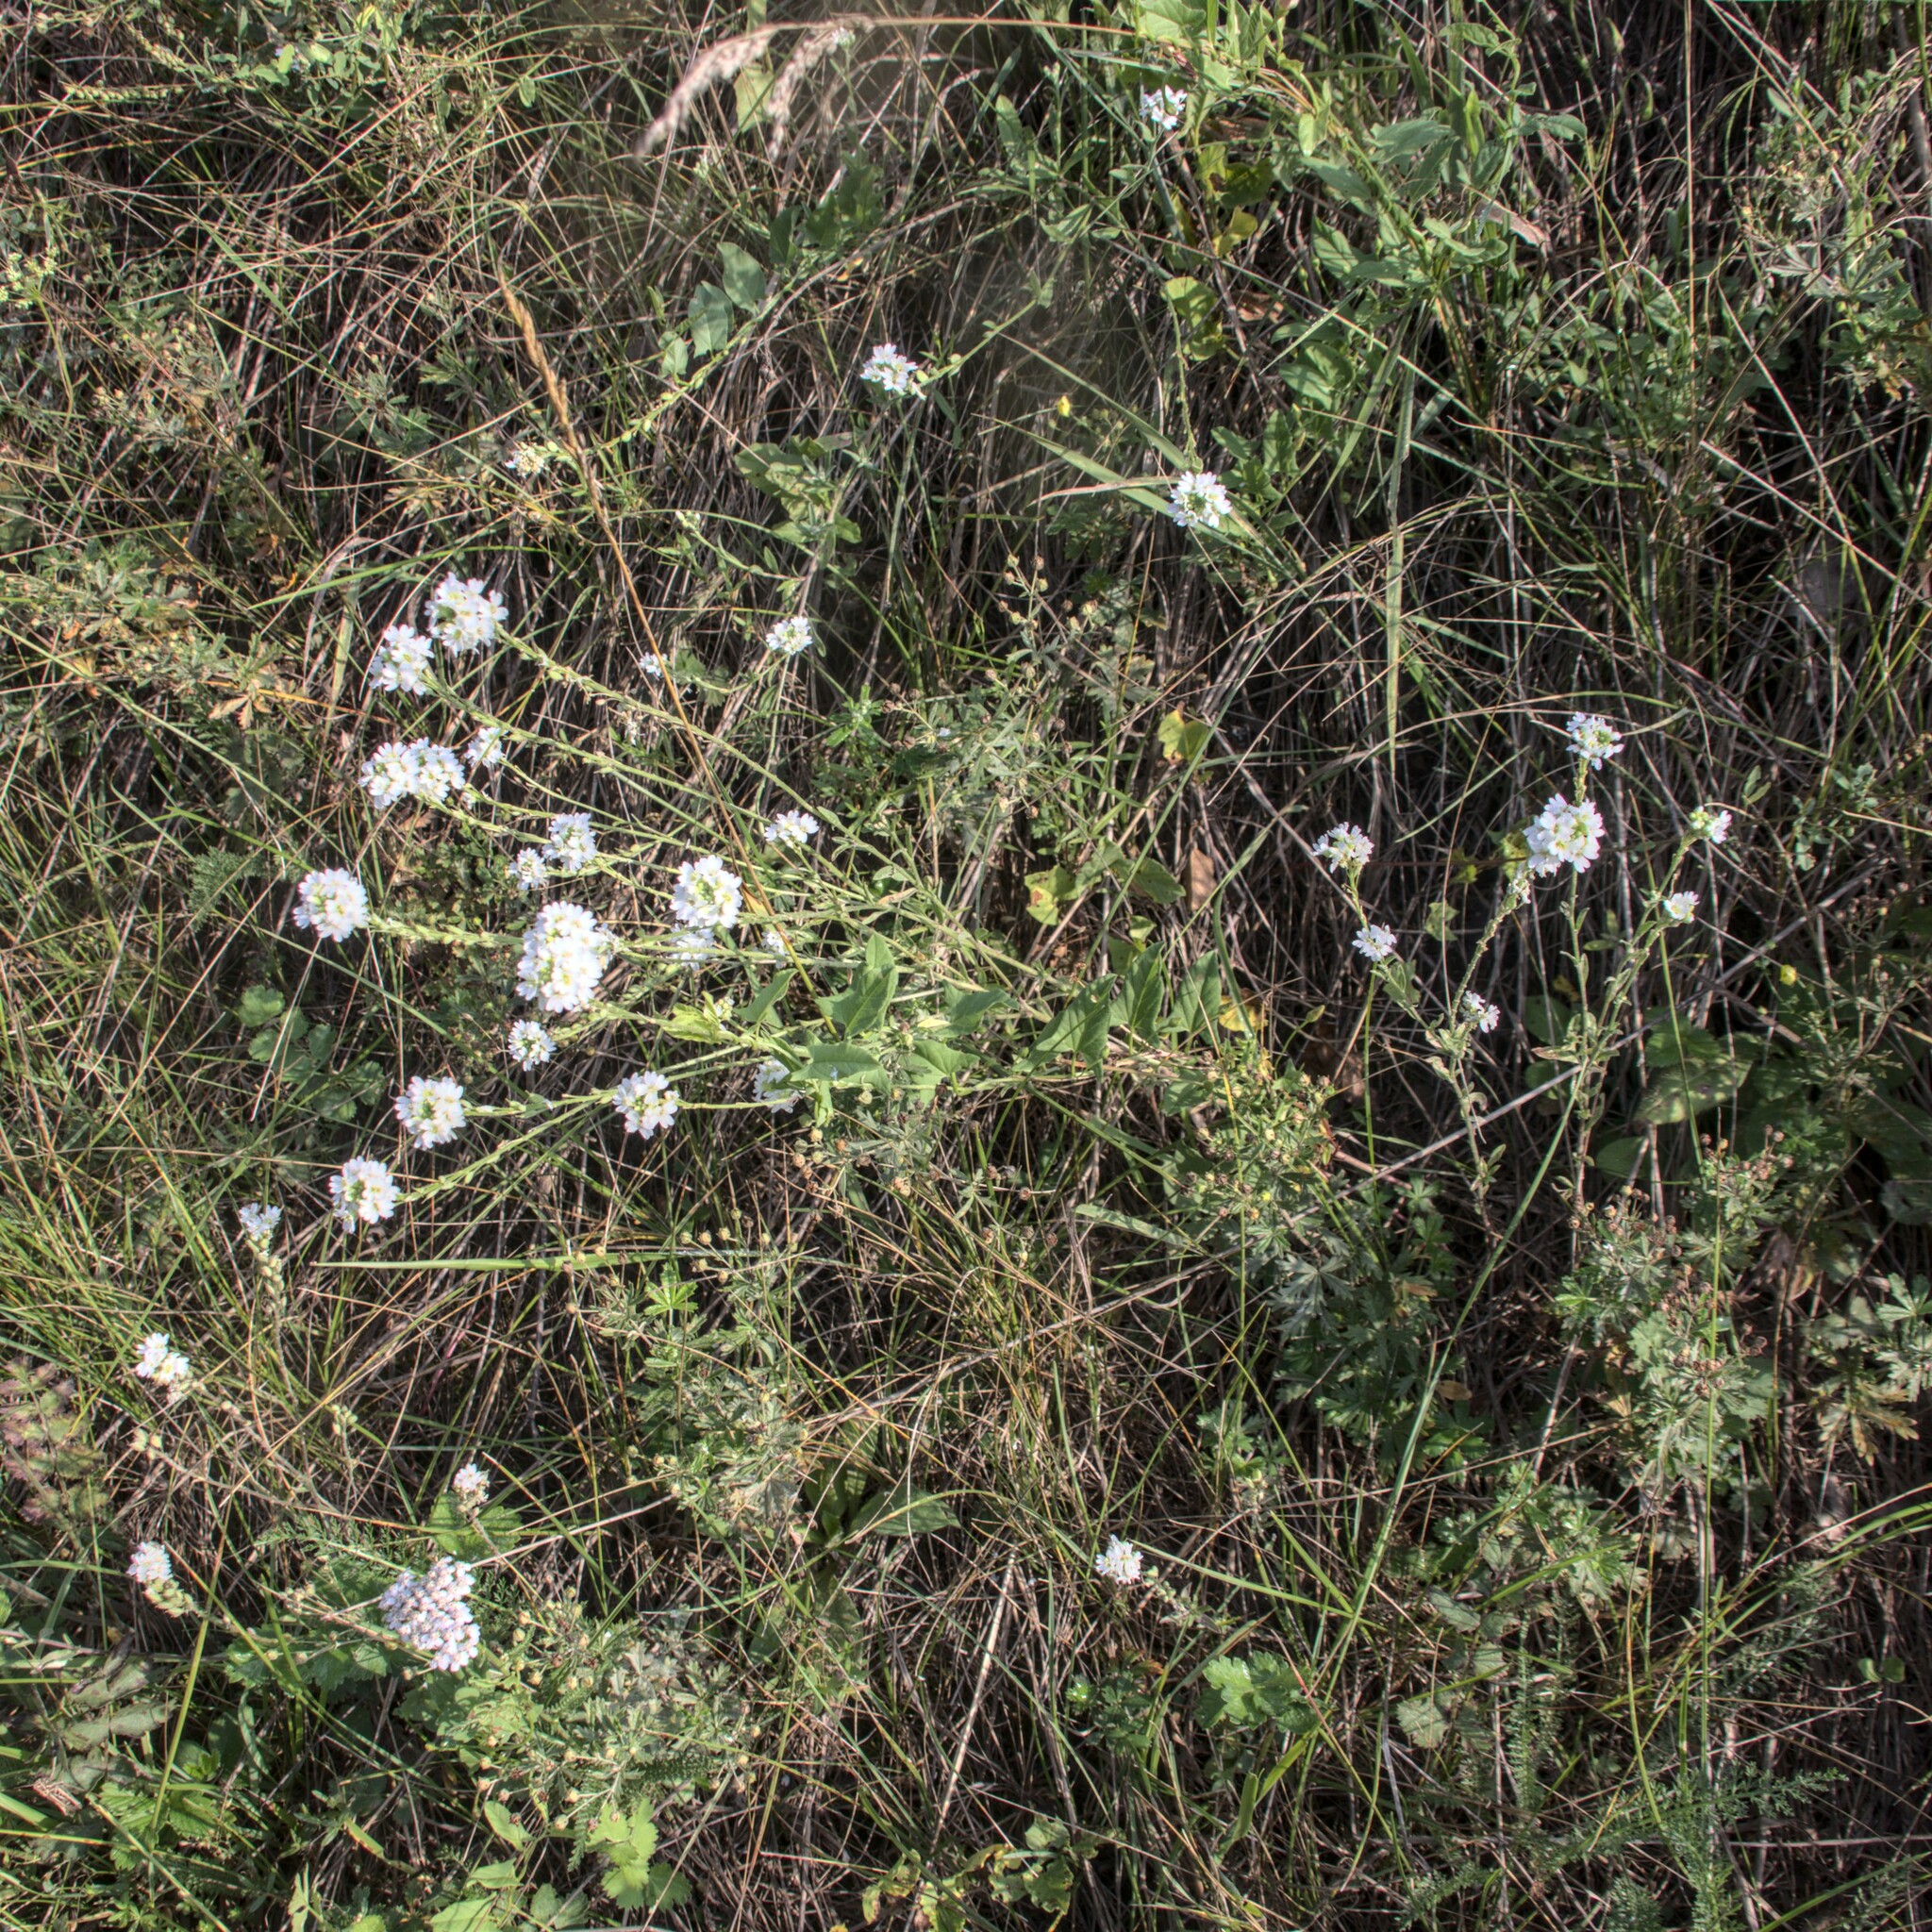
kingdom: Plantae
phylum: Tracheophyta
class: Magnoliopsida
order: Brassicales
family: Brassicaceae
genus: Berteroa
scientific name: Berteroa incana
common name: Hoary alison
